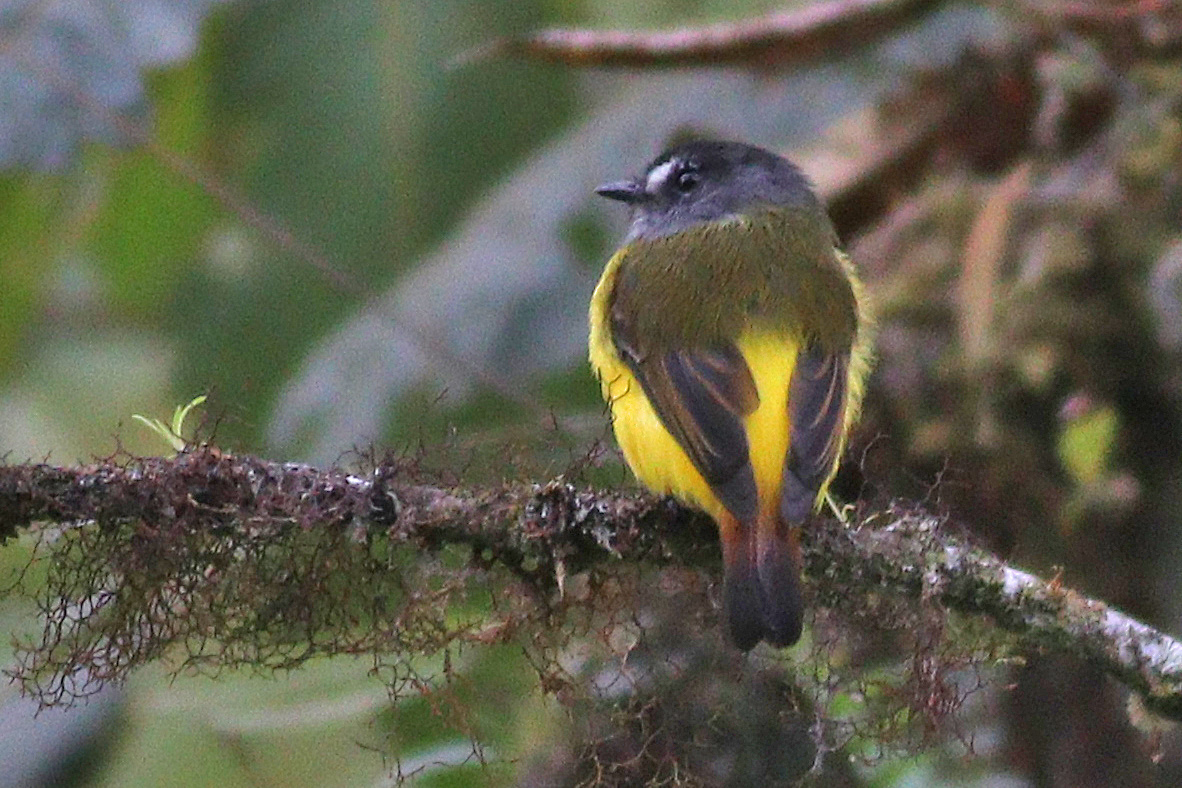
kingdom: Animalia
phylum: Chordata
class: Aves
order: Passeriformes
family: Tyrannidae
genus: Myiotriccus
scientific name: Myiotriccus ornatus
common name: Ornate flycatcher
